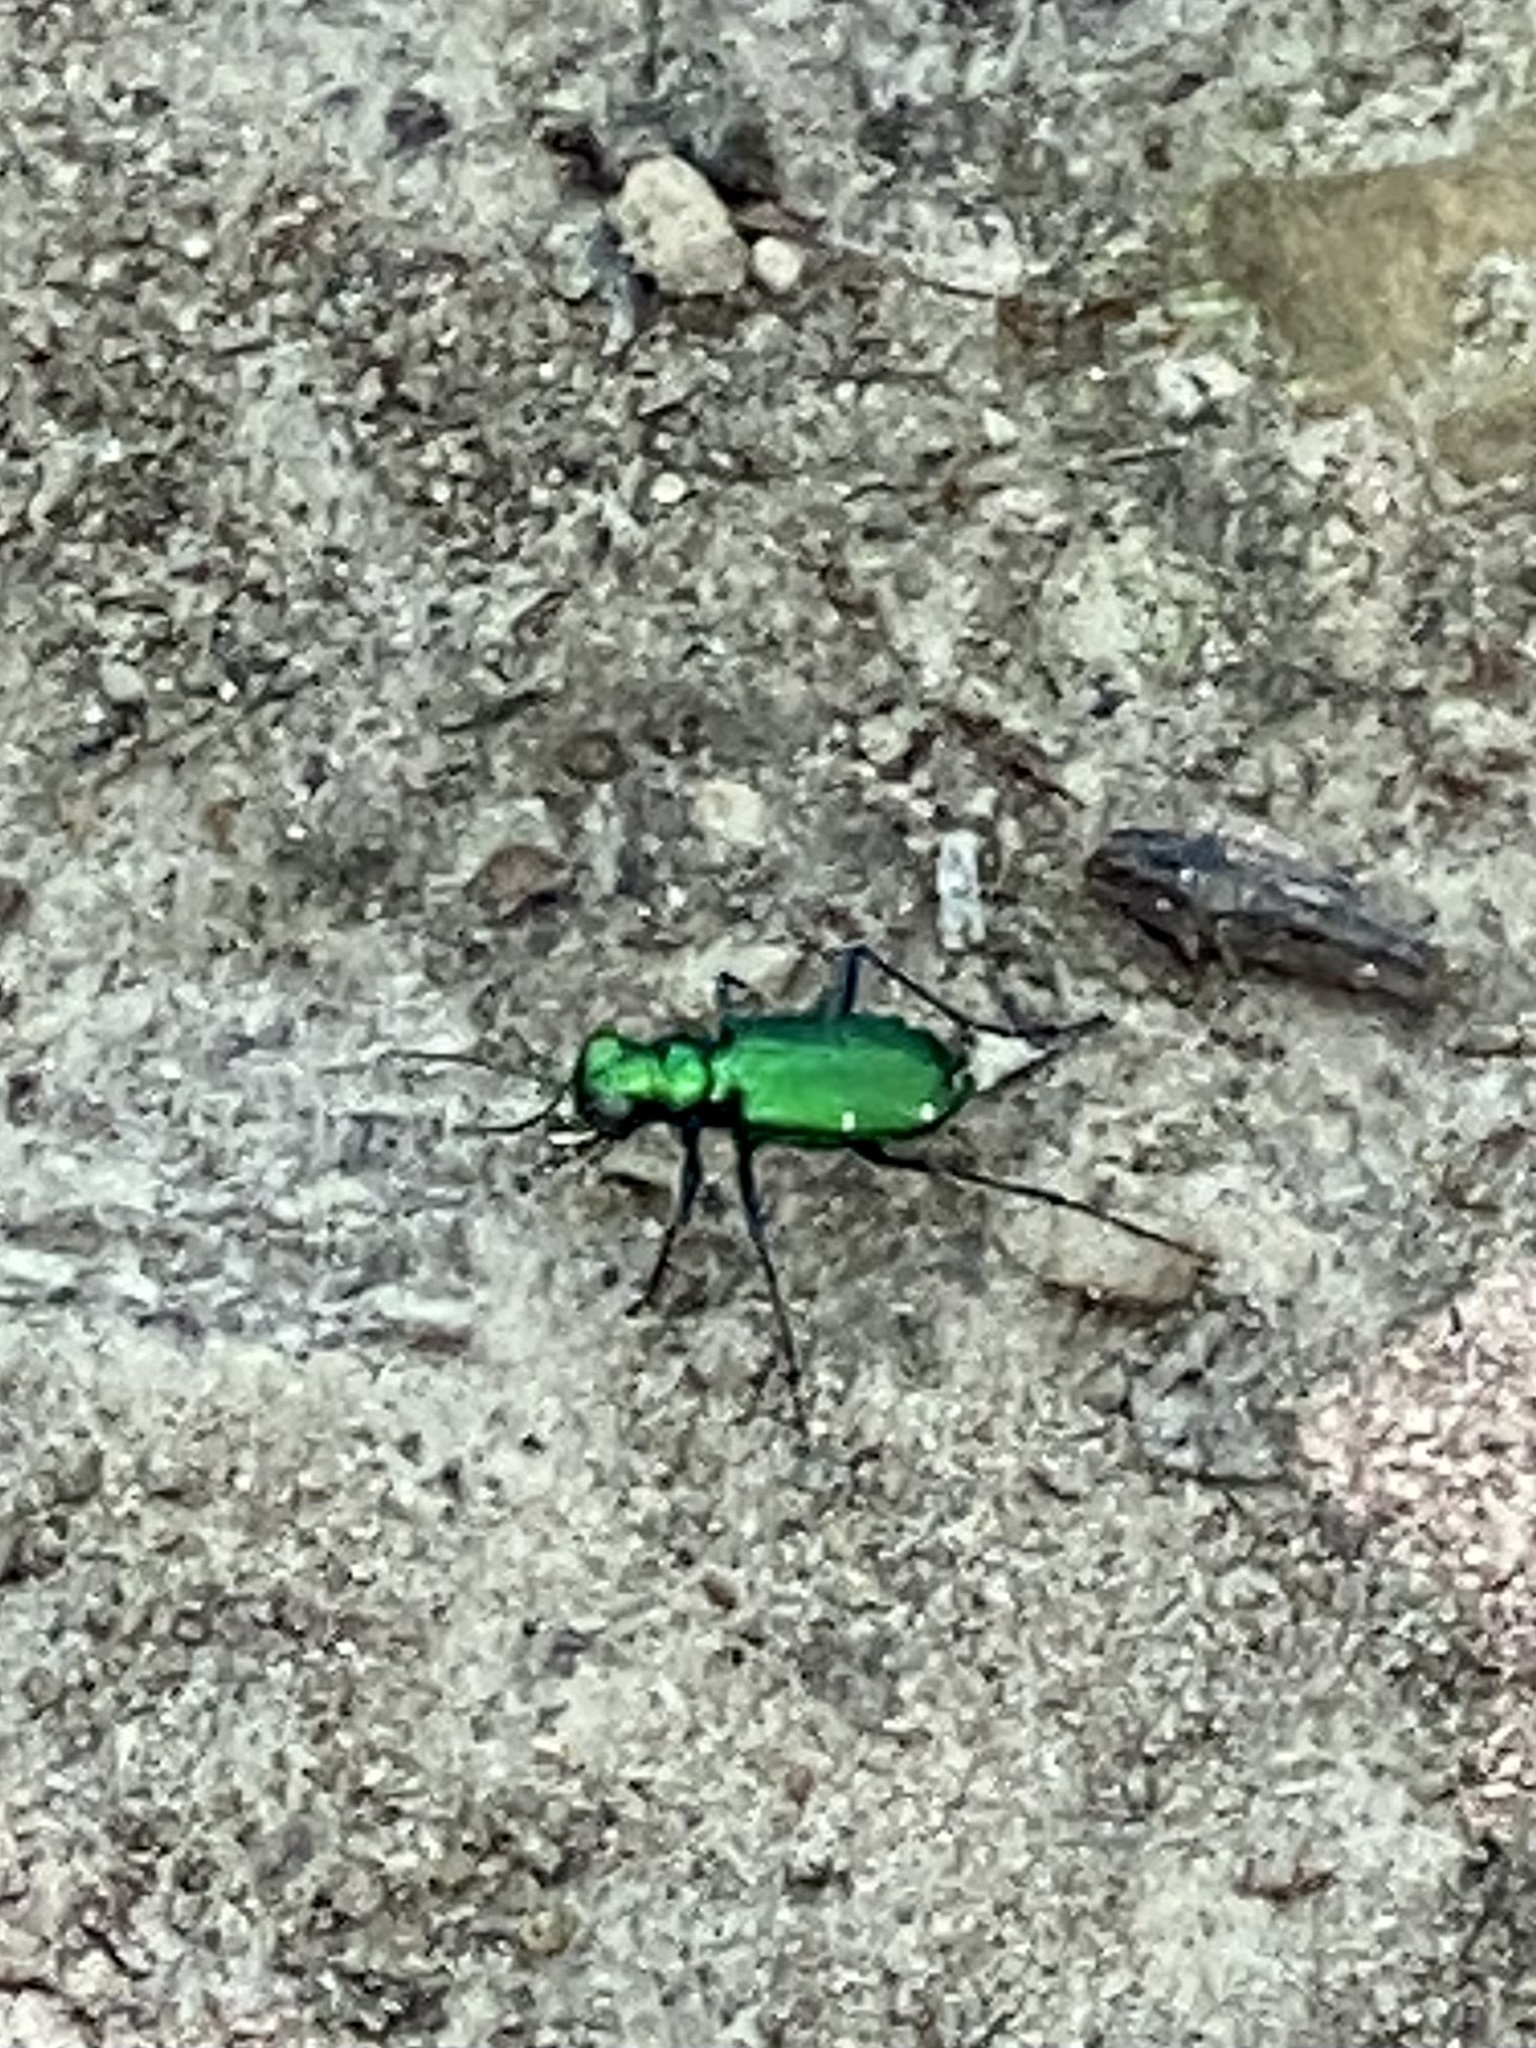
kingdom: Animalia
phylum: Arthropoda
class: Insecta
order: Coleoptera
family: Carabidae
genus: Cicindela
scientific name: Cicindela sexguttata
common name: Six-spotted tiger beetle
